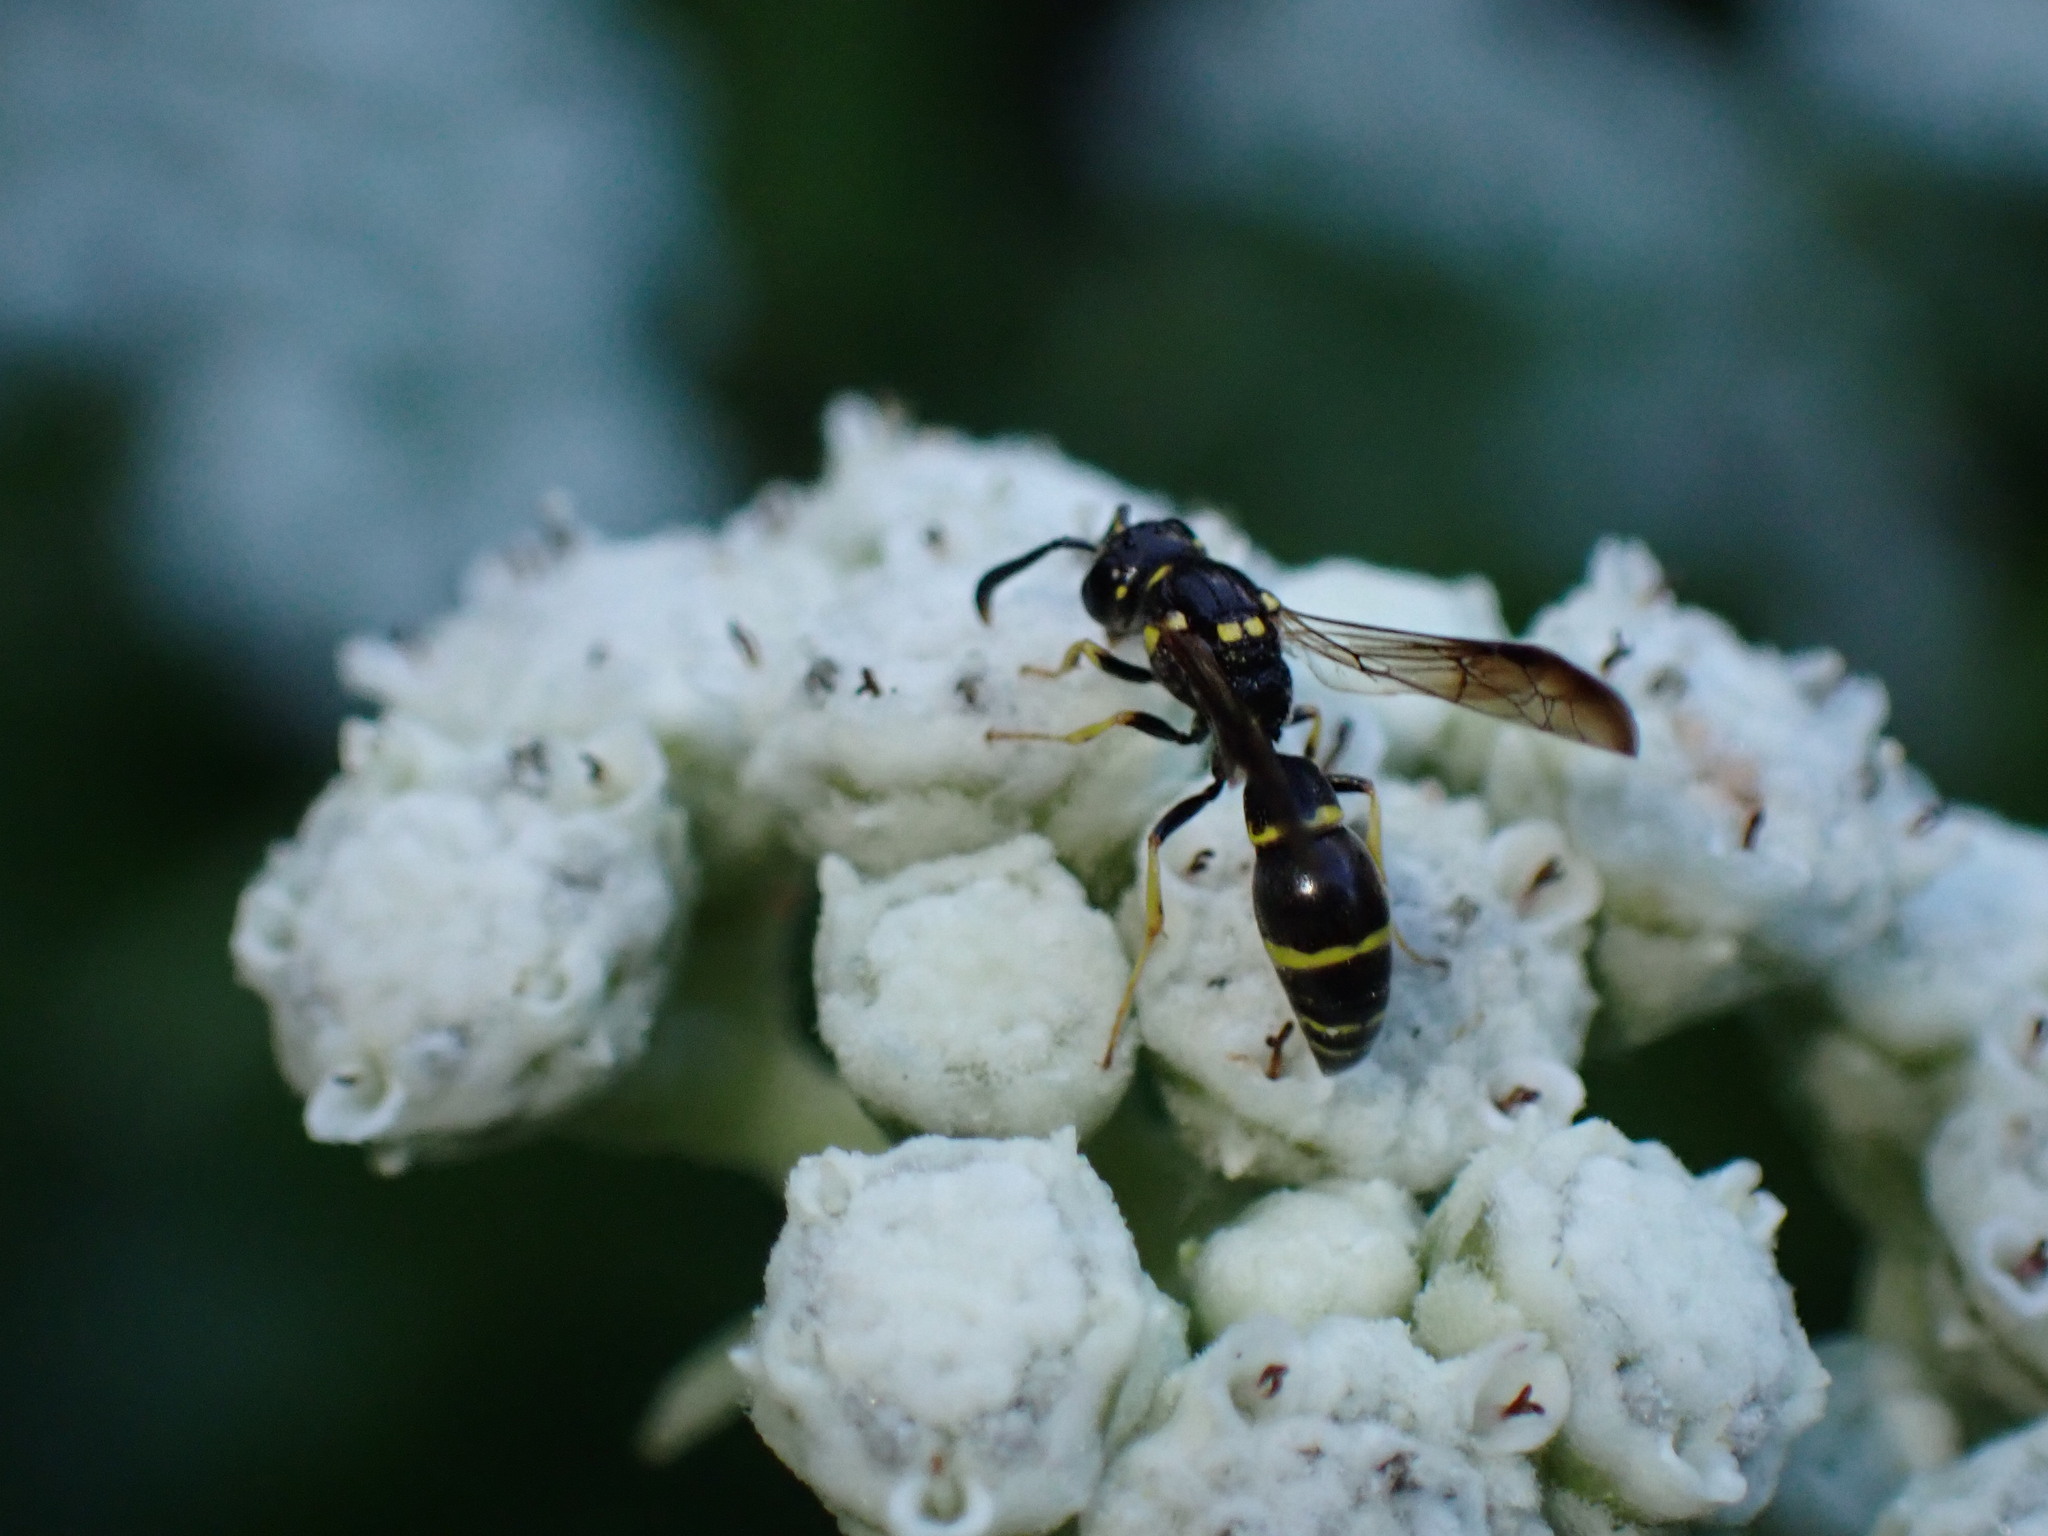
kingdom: Animalia
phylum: Arthropoda
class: Insecta
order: Hymenoptera
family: Eumenidae
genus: Symmorphus
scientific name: Symmorphus
